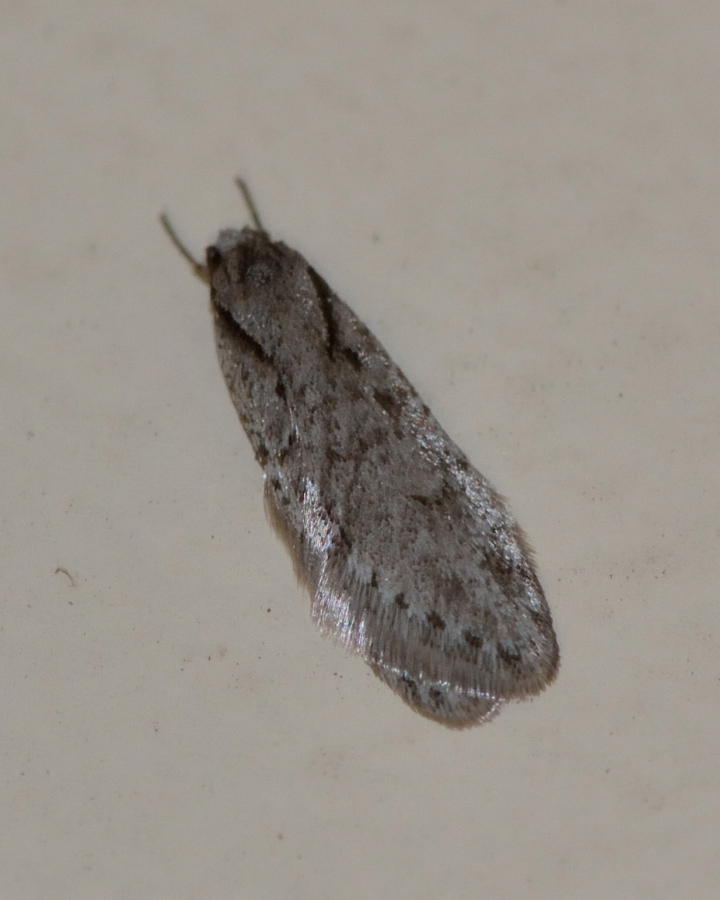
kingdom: Animalia
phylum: Arthropoda
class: Insecta
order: Lepidoptera
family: Depressariidae
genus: Semioscopis
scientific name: Semioscopis avellanella
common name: Early flat-body
